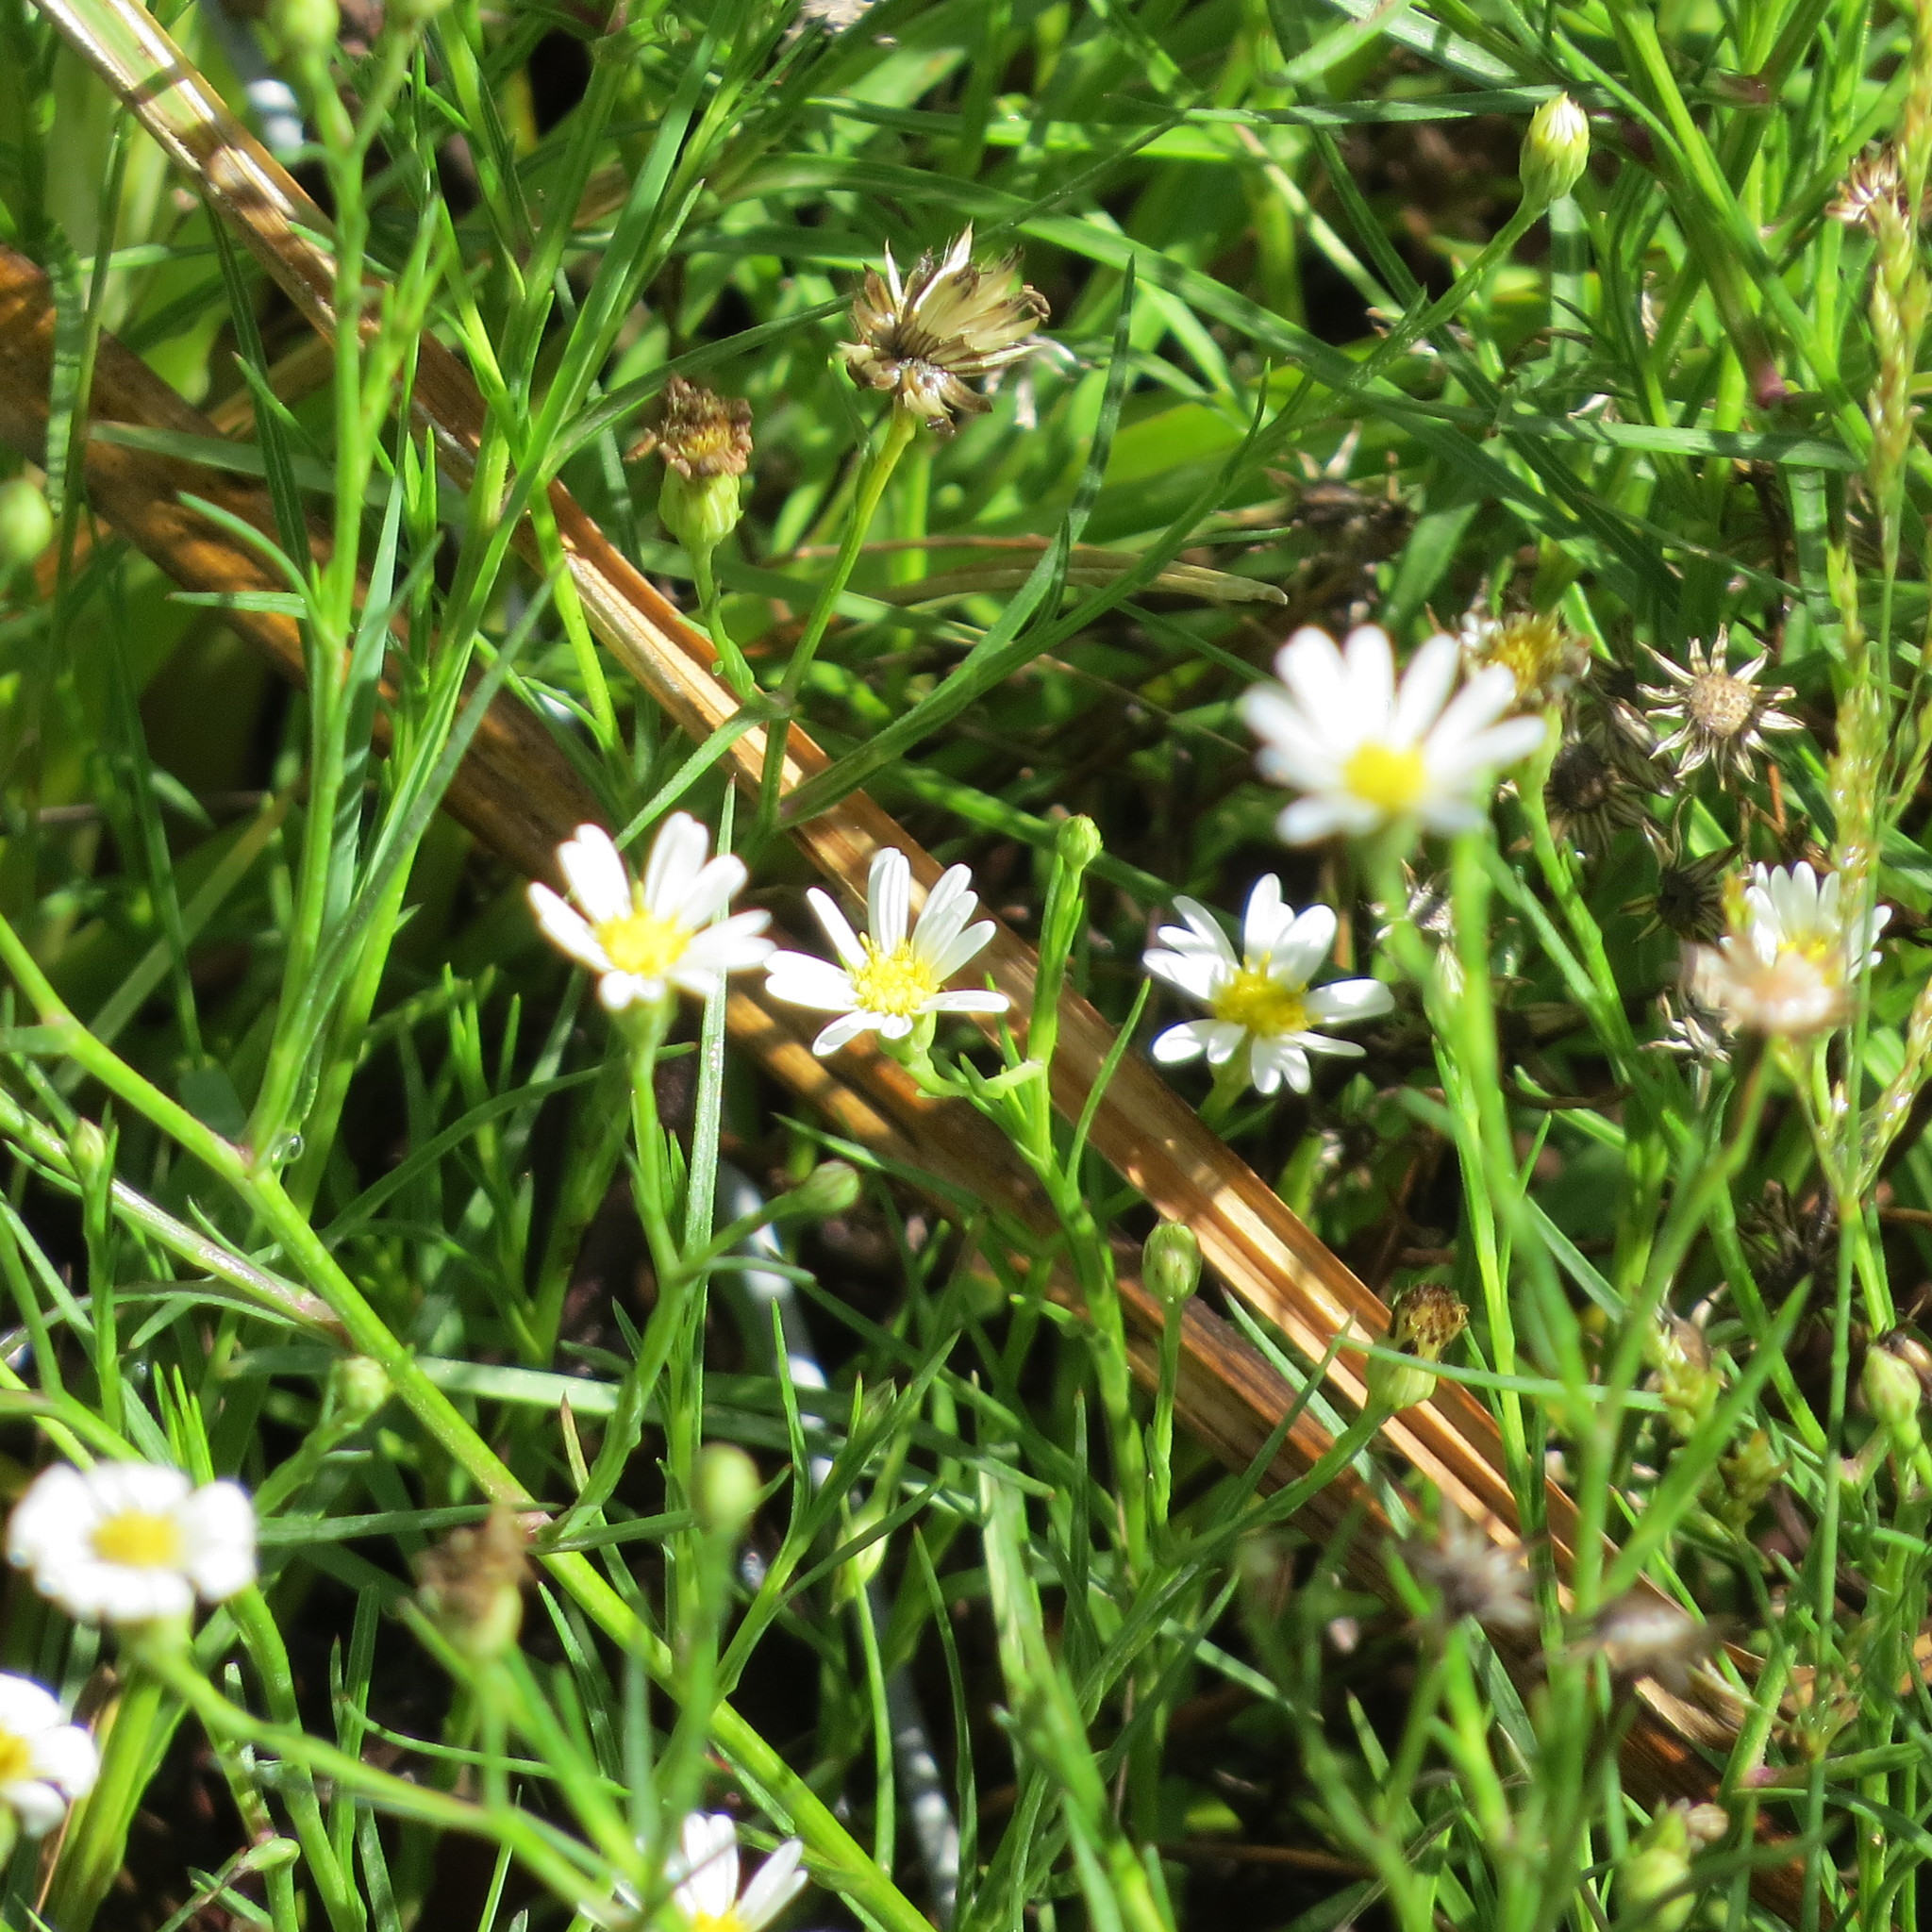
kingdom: Plantae
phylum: Tracheophyta
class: Magnoliopsida
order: Asterales
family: Asteraceae
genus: Symphyotrichum
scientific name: Symphyotrichum potosinum
